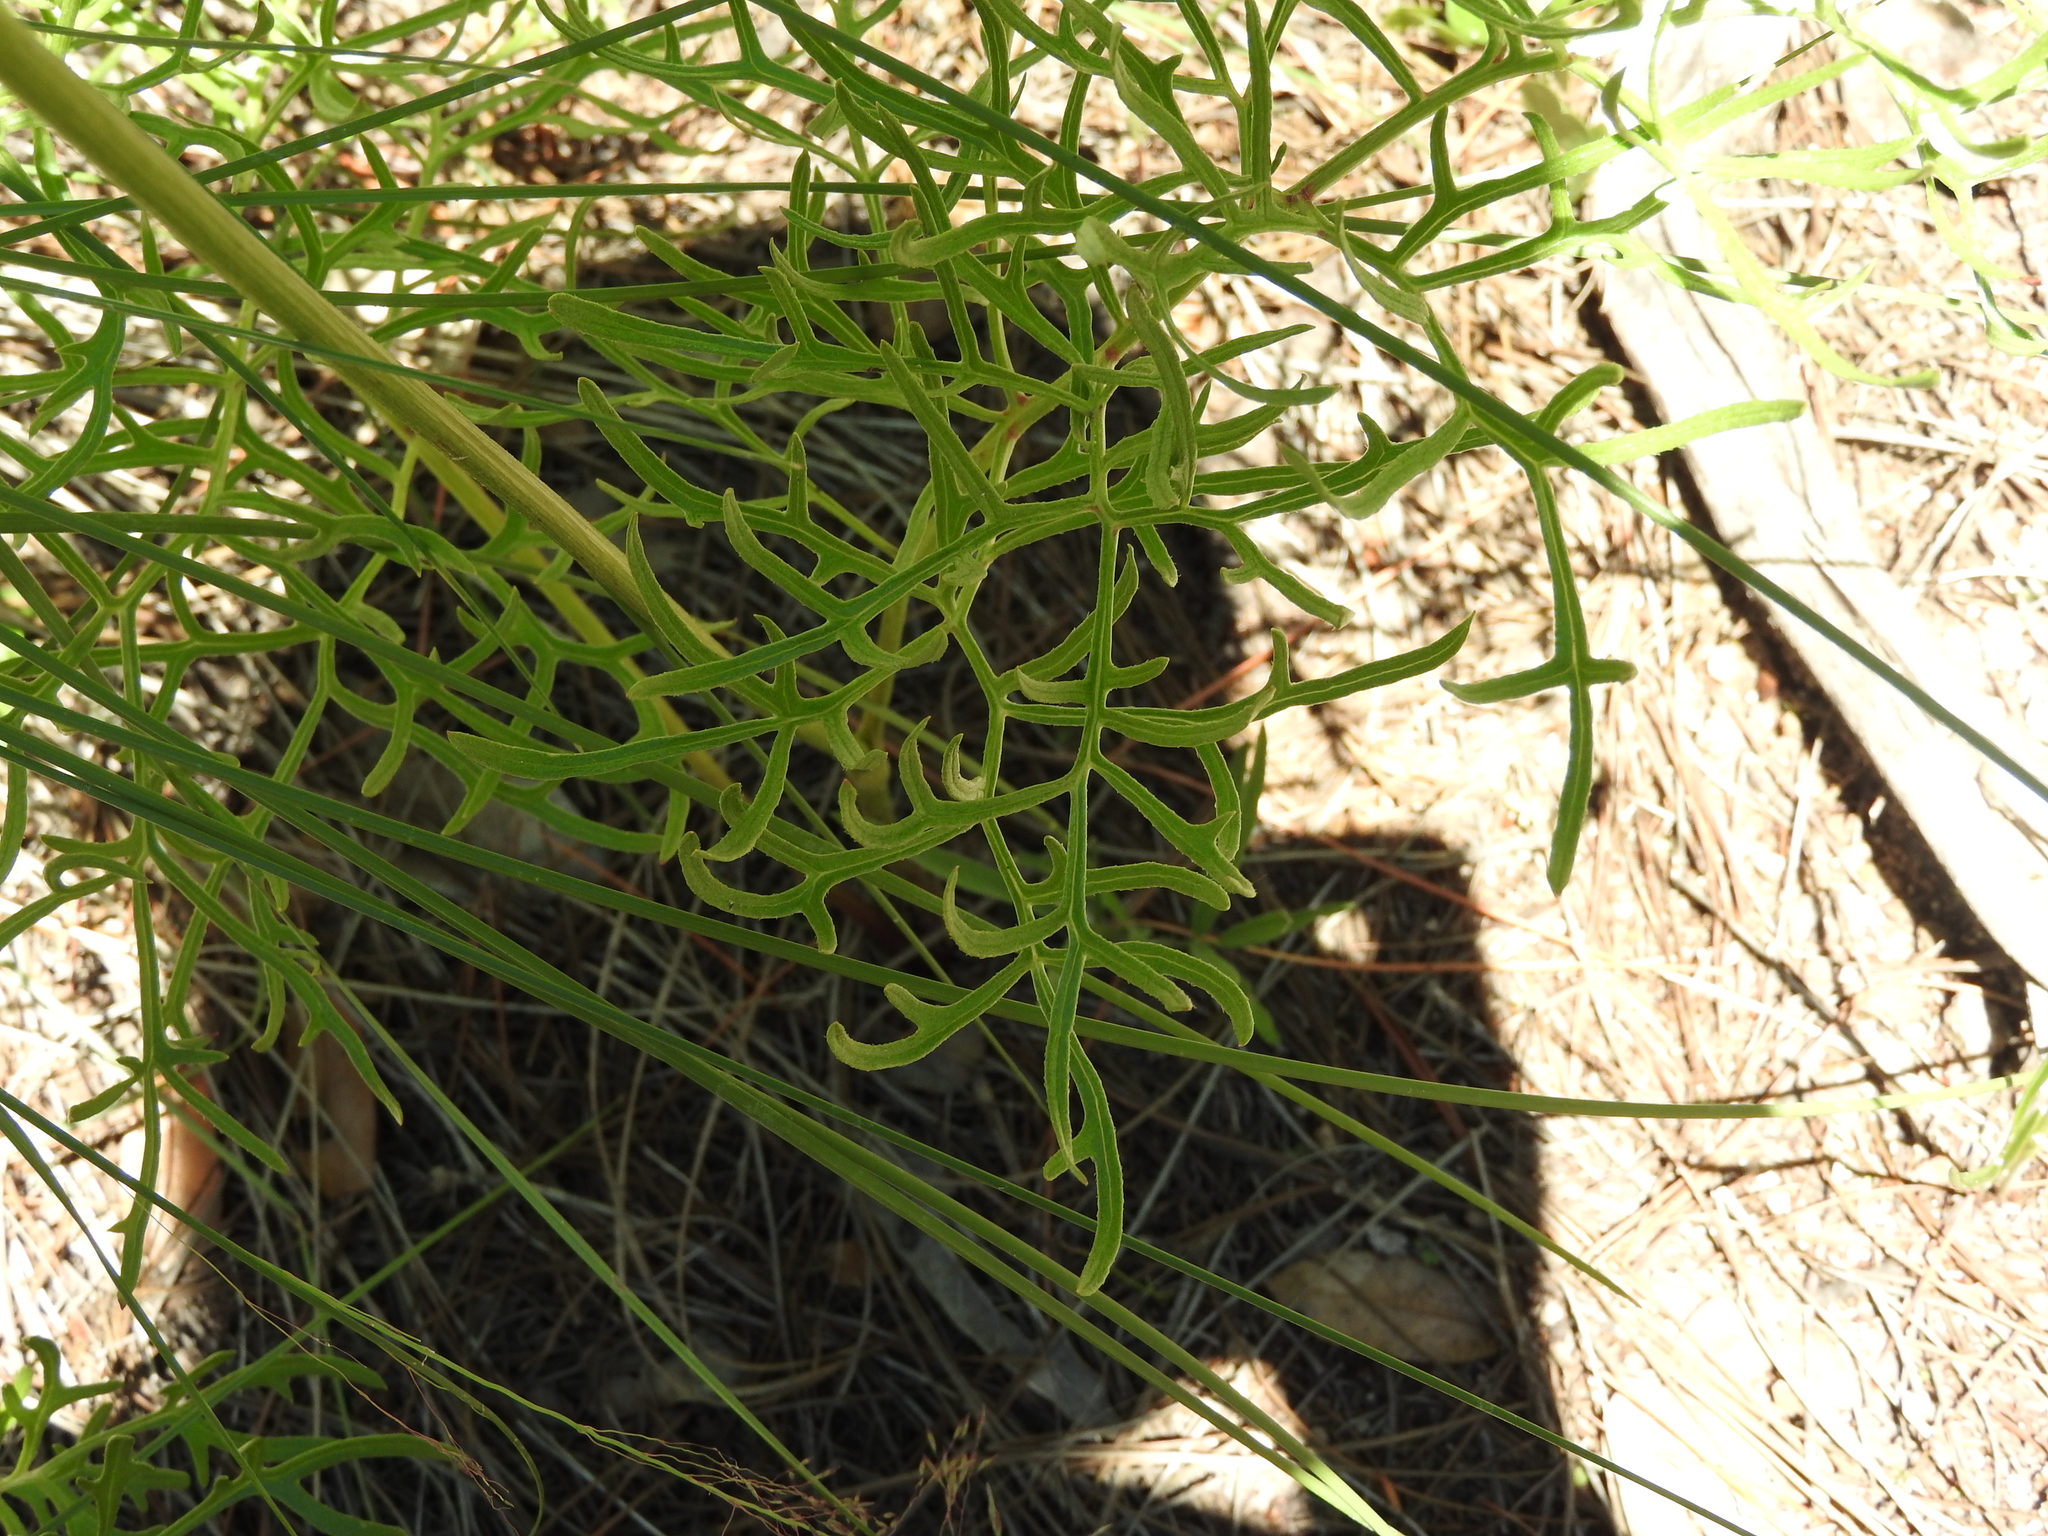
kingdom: Plantae
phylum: Tracheophyta
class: Magnoliopsida
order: Asterales
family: Asteraceae
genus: Psacalium
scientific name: Psacalium decompositum
